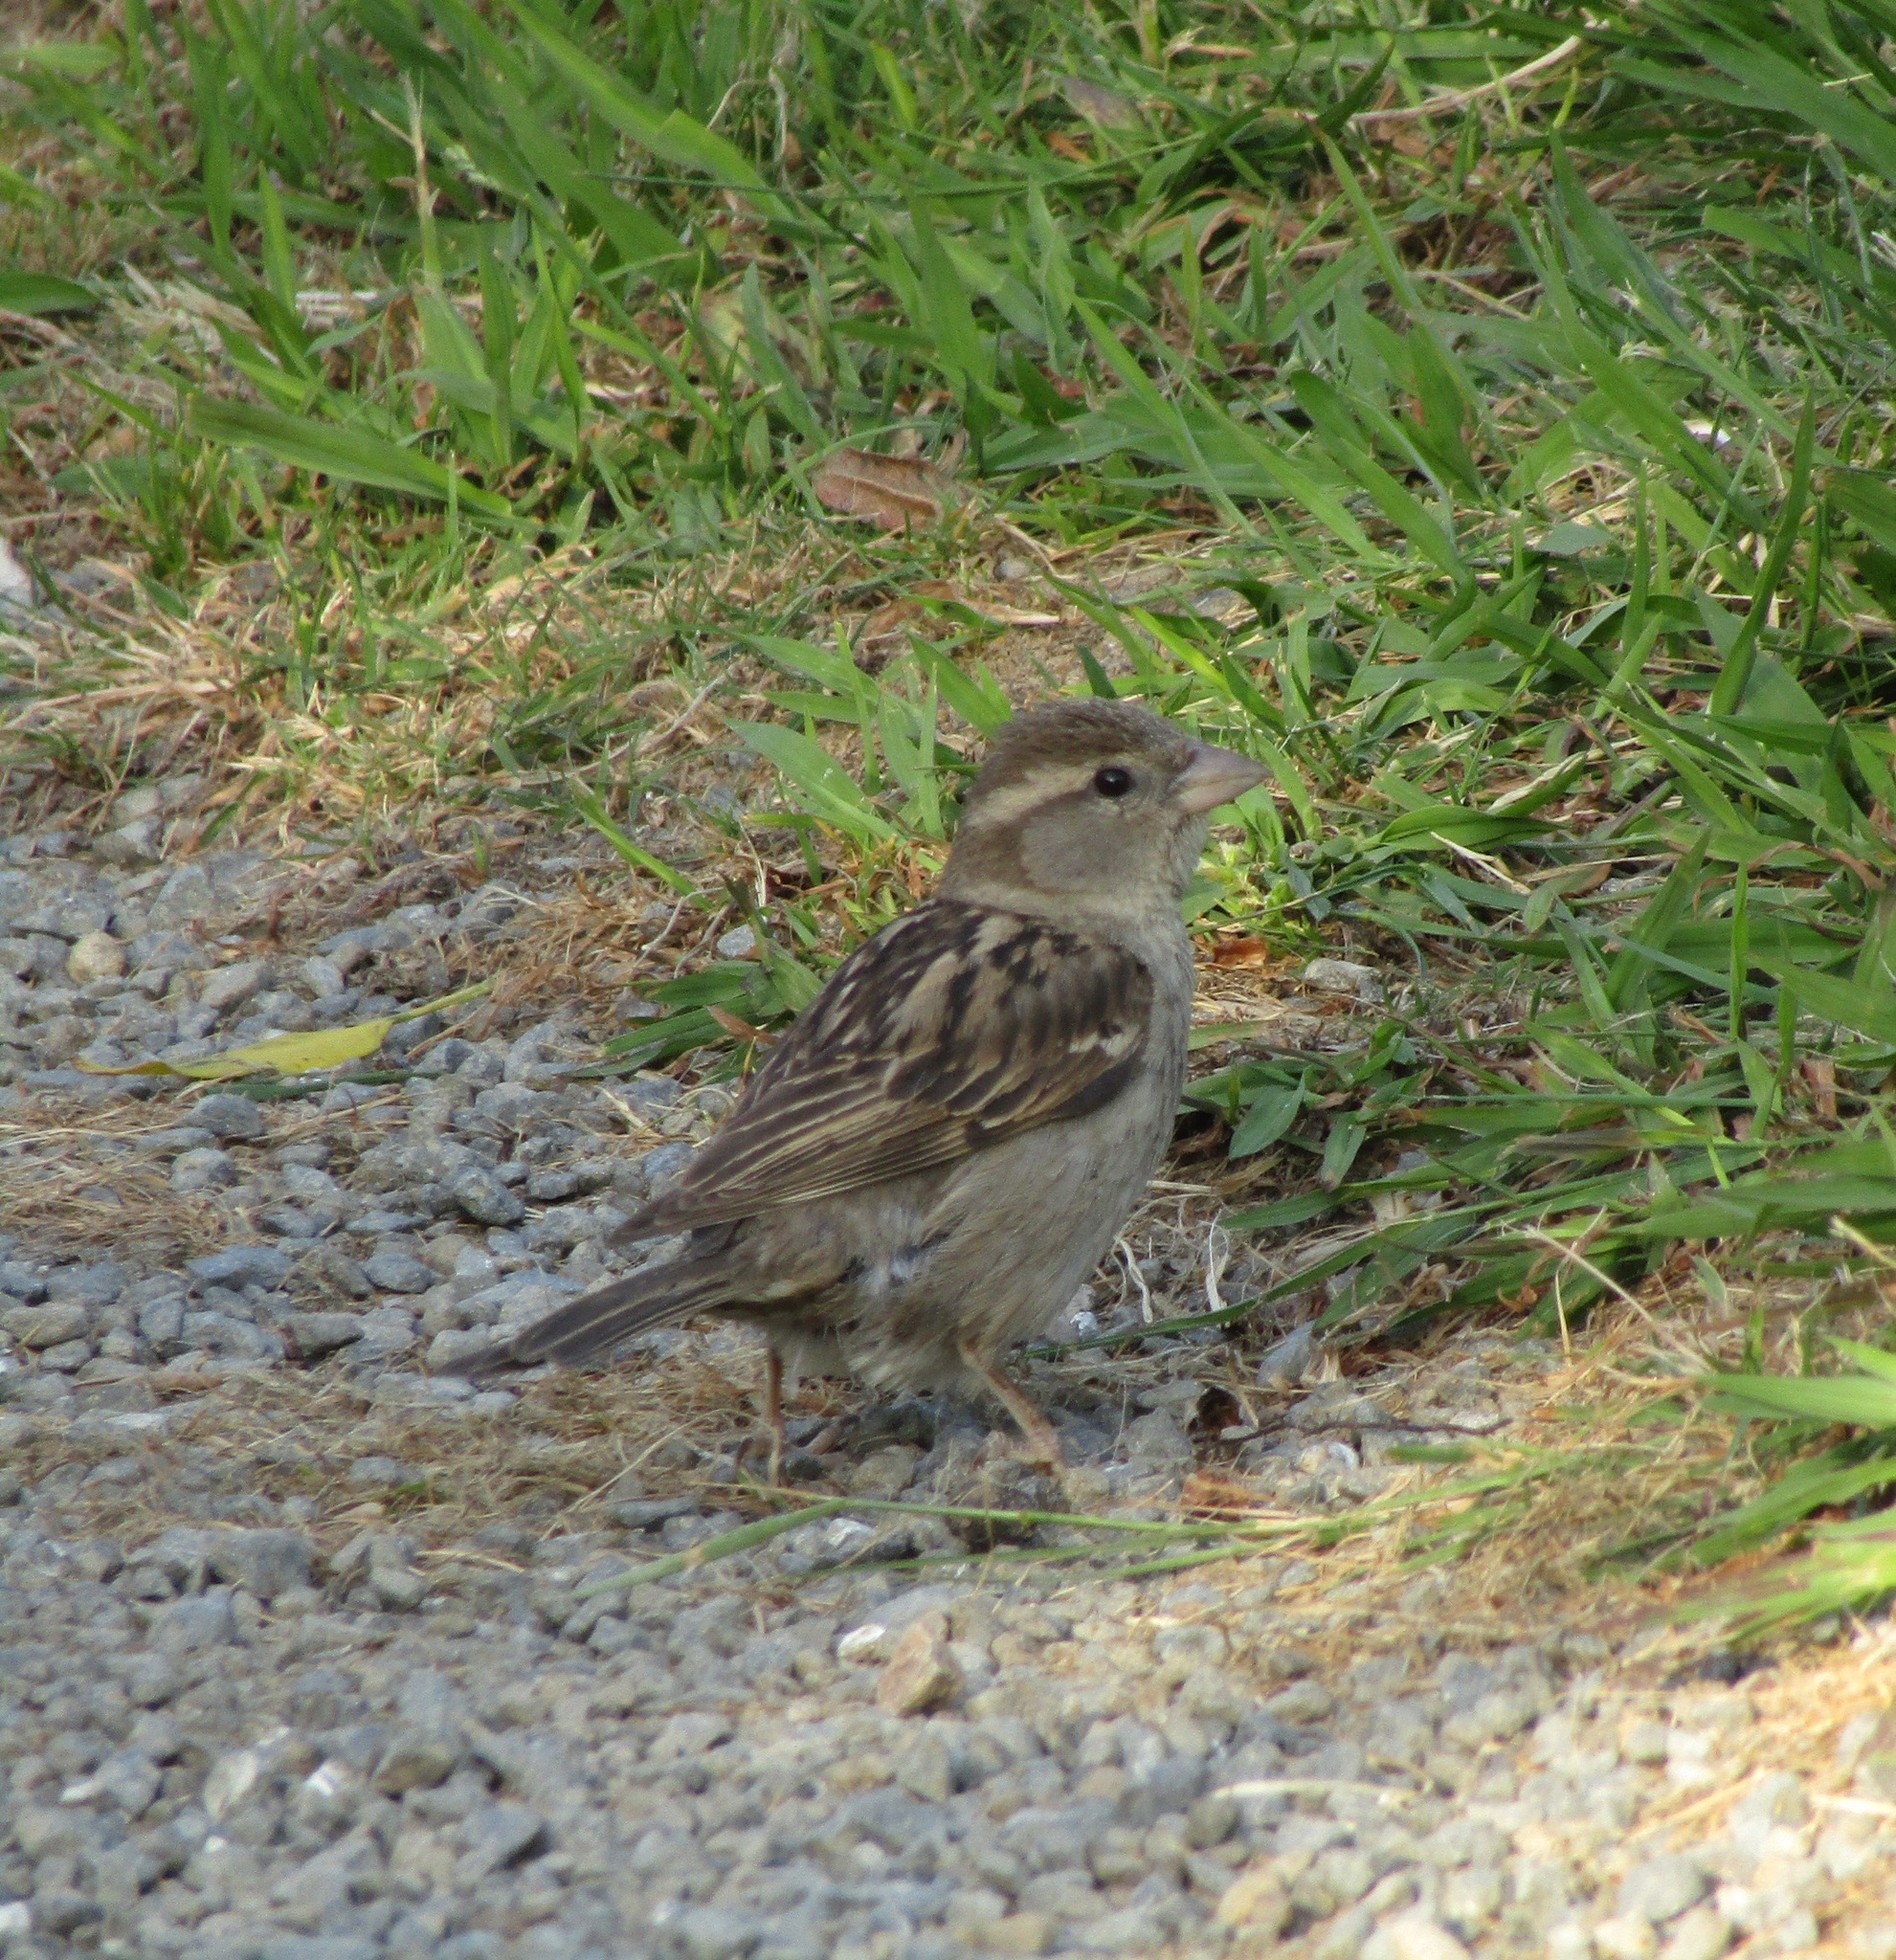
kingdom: Animalia
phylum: Chordata
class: Aves
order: Passeriformes
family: Passeridae
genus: Passer
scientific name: Passer domesticus
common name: House sparrow
